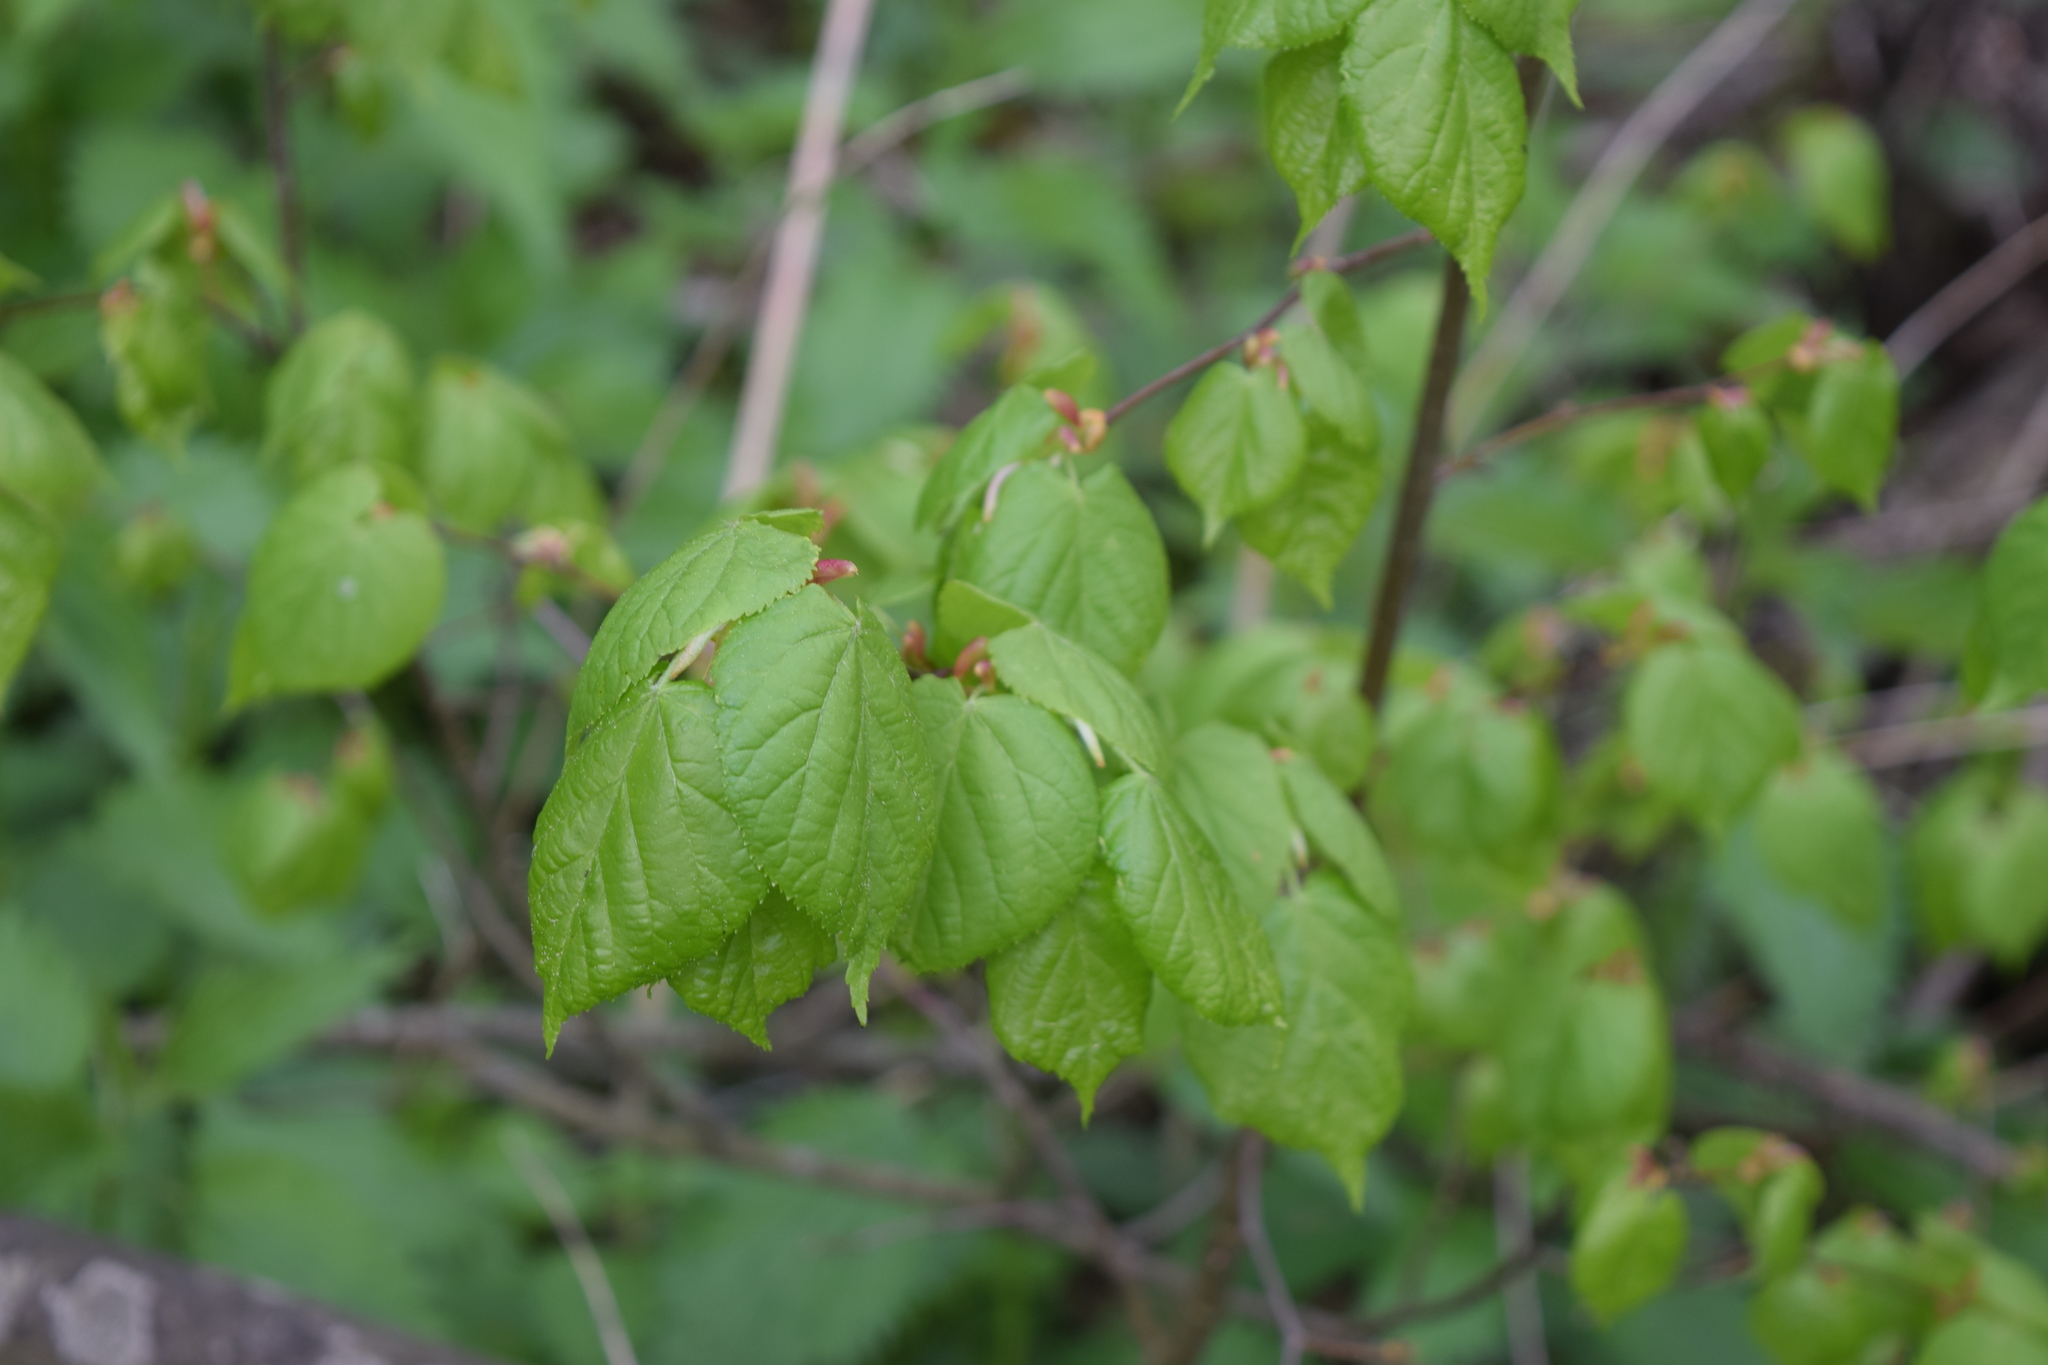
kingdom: Plantae
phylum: Tracheophyta
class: Magnoliopsida
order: Malvales
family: Malvaceae
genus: Tilia
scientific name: Tilia cordata
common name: Small-leaved lime
